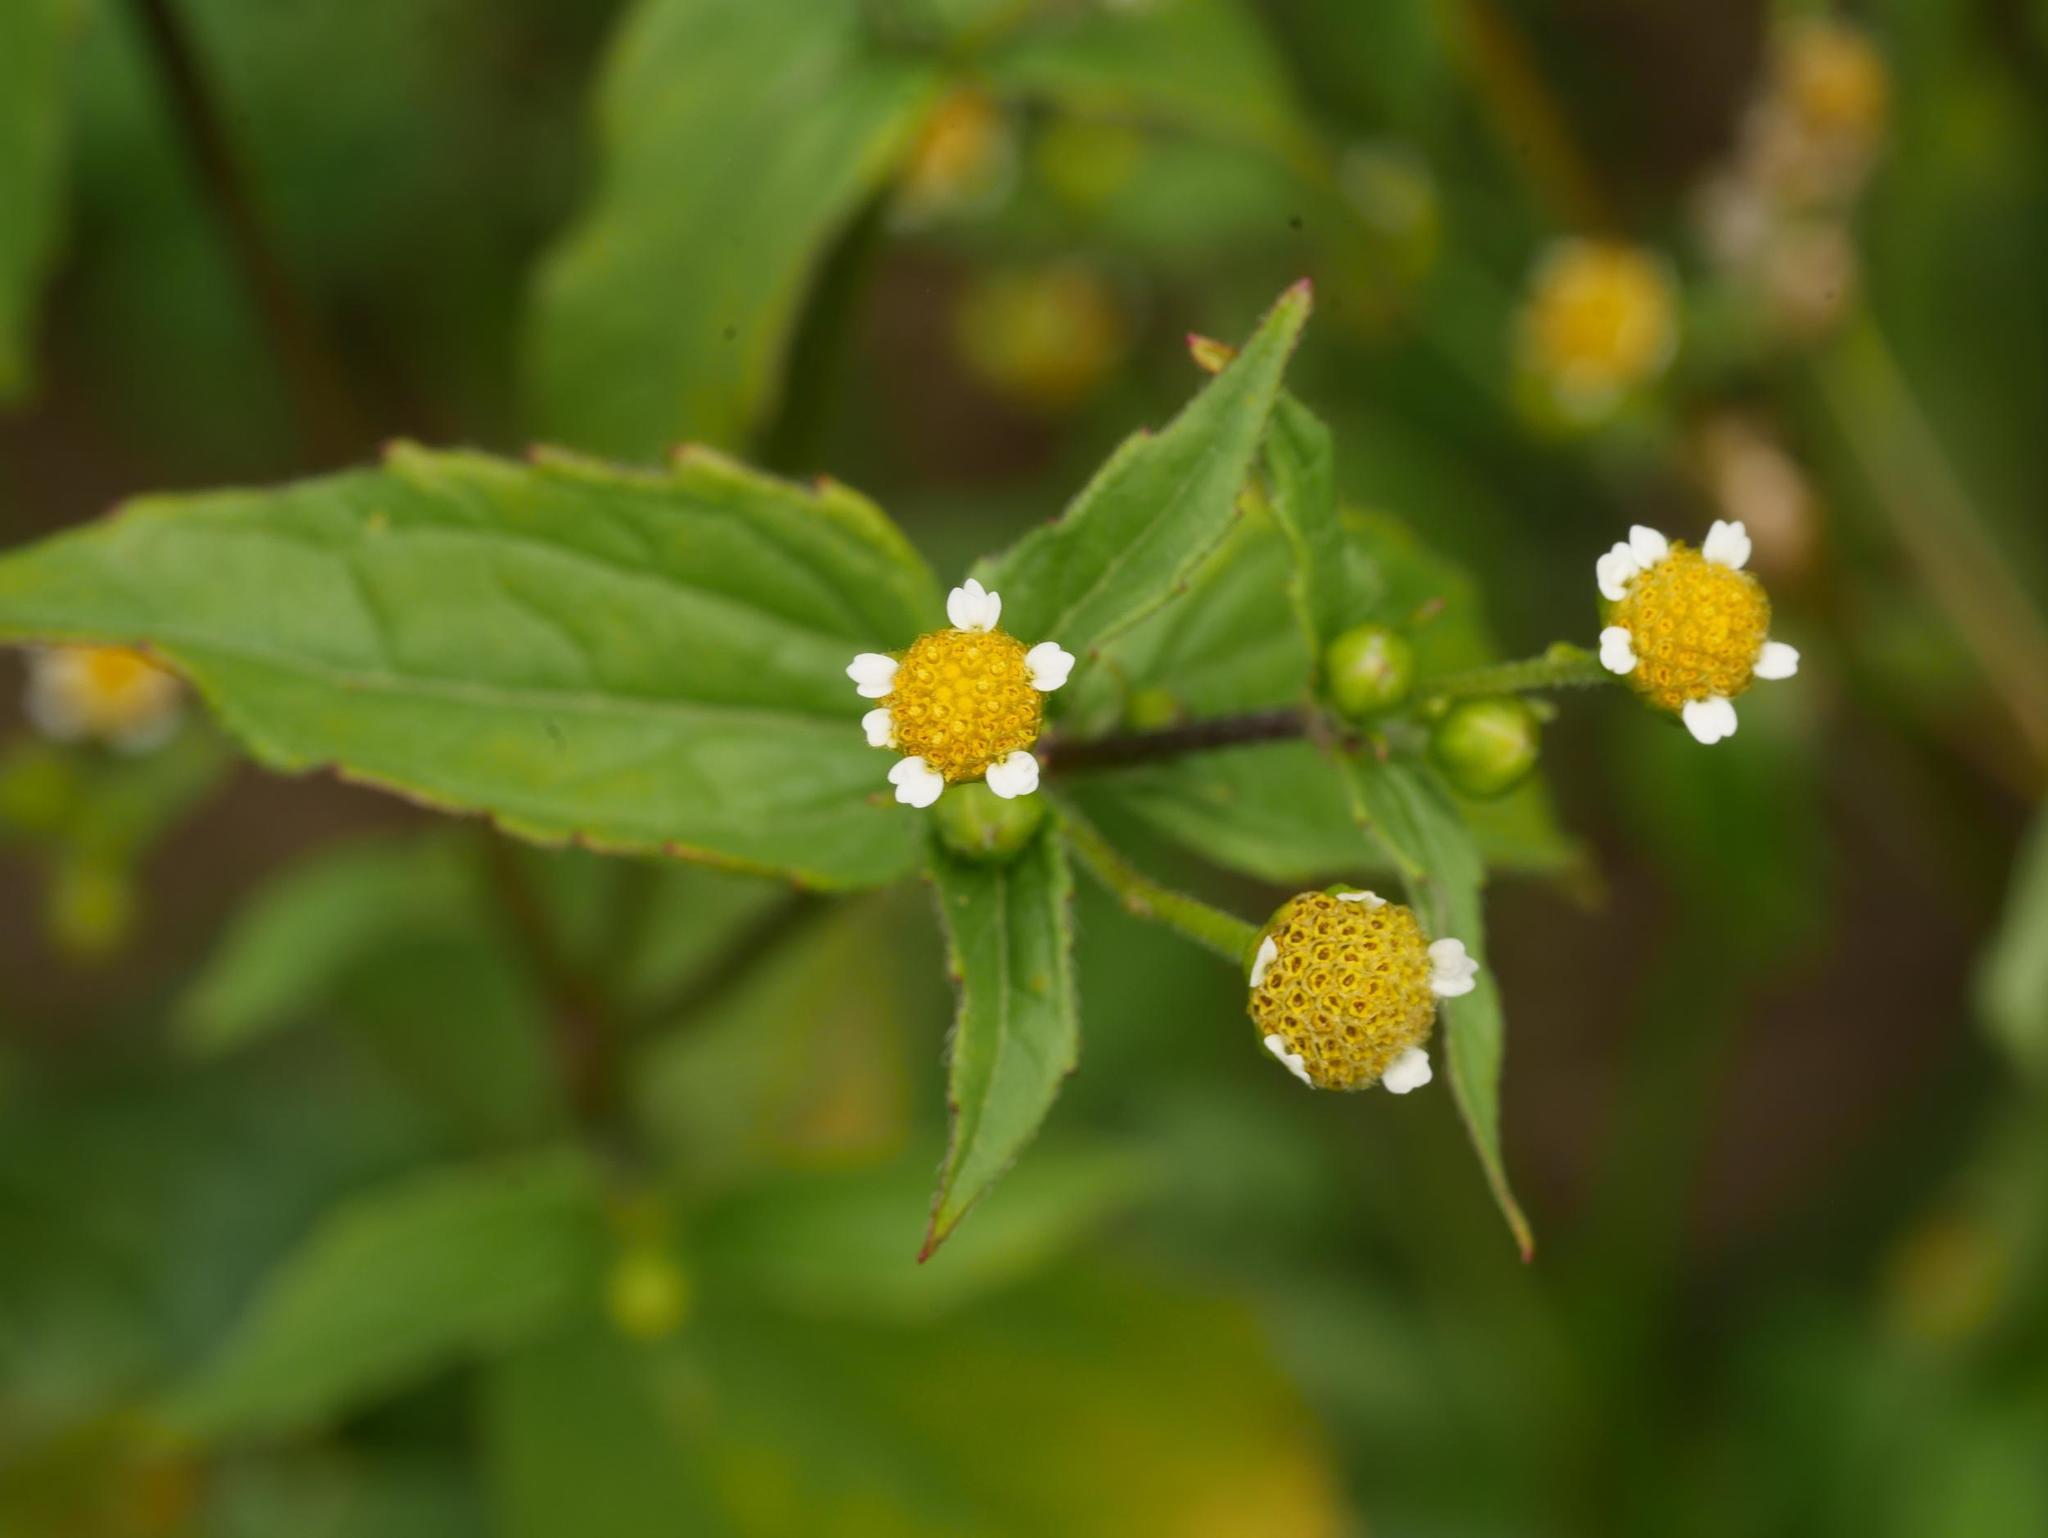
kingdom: Plantae
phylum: Tracheophyta
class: Magnoliopsida
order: Asterales
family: Asteraceae
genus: Galinsoga
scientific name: Galinsoga parviflora
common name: Gallant soldier
